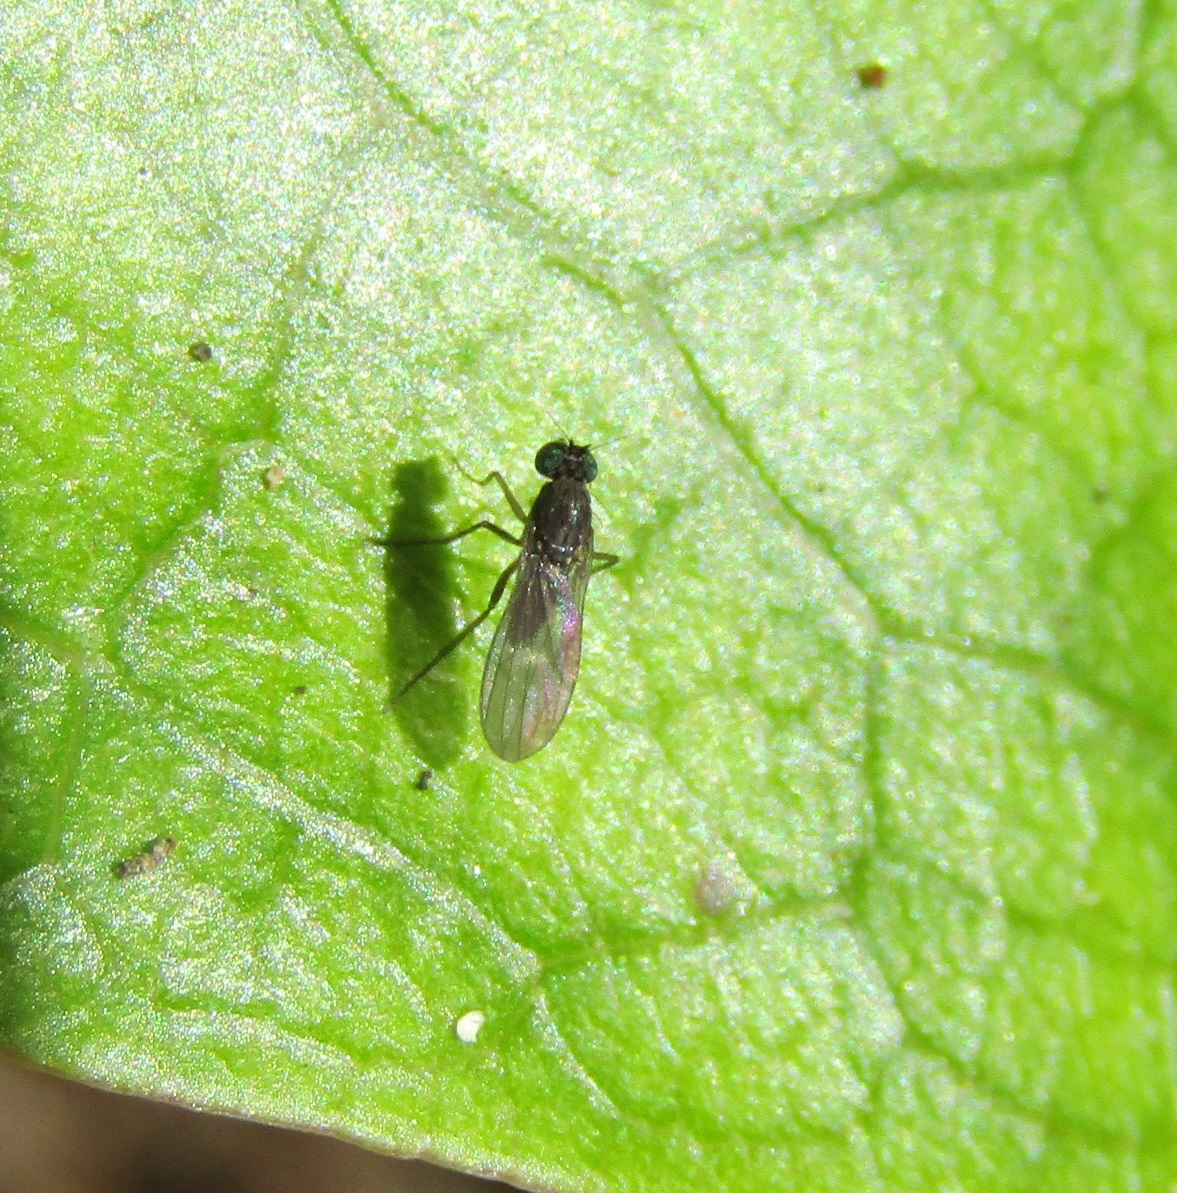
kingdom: Animalia
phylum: Arthropoda
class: Insecta
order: Diptera
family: Dolichopodidae
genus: Micropygus
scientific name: Micropygus bipunctatus
